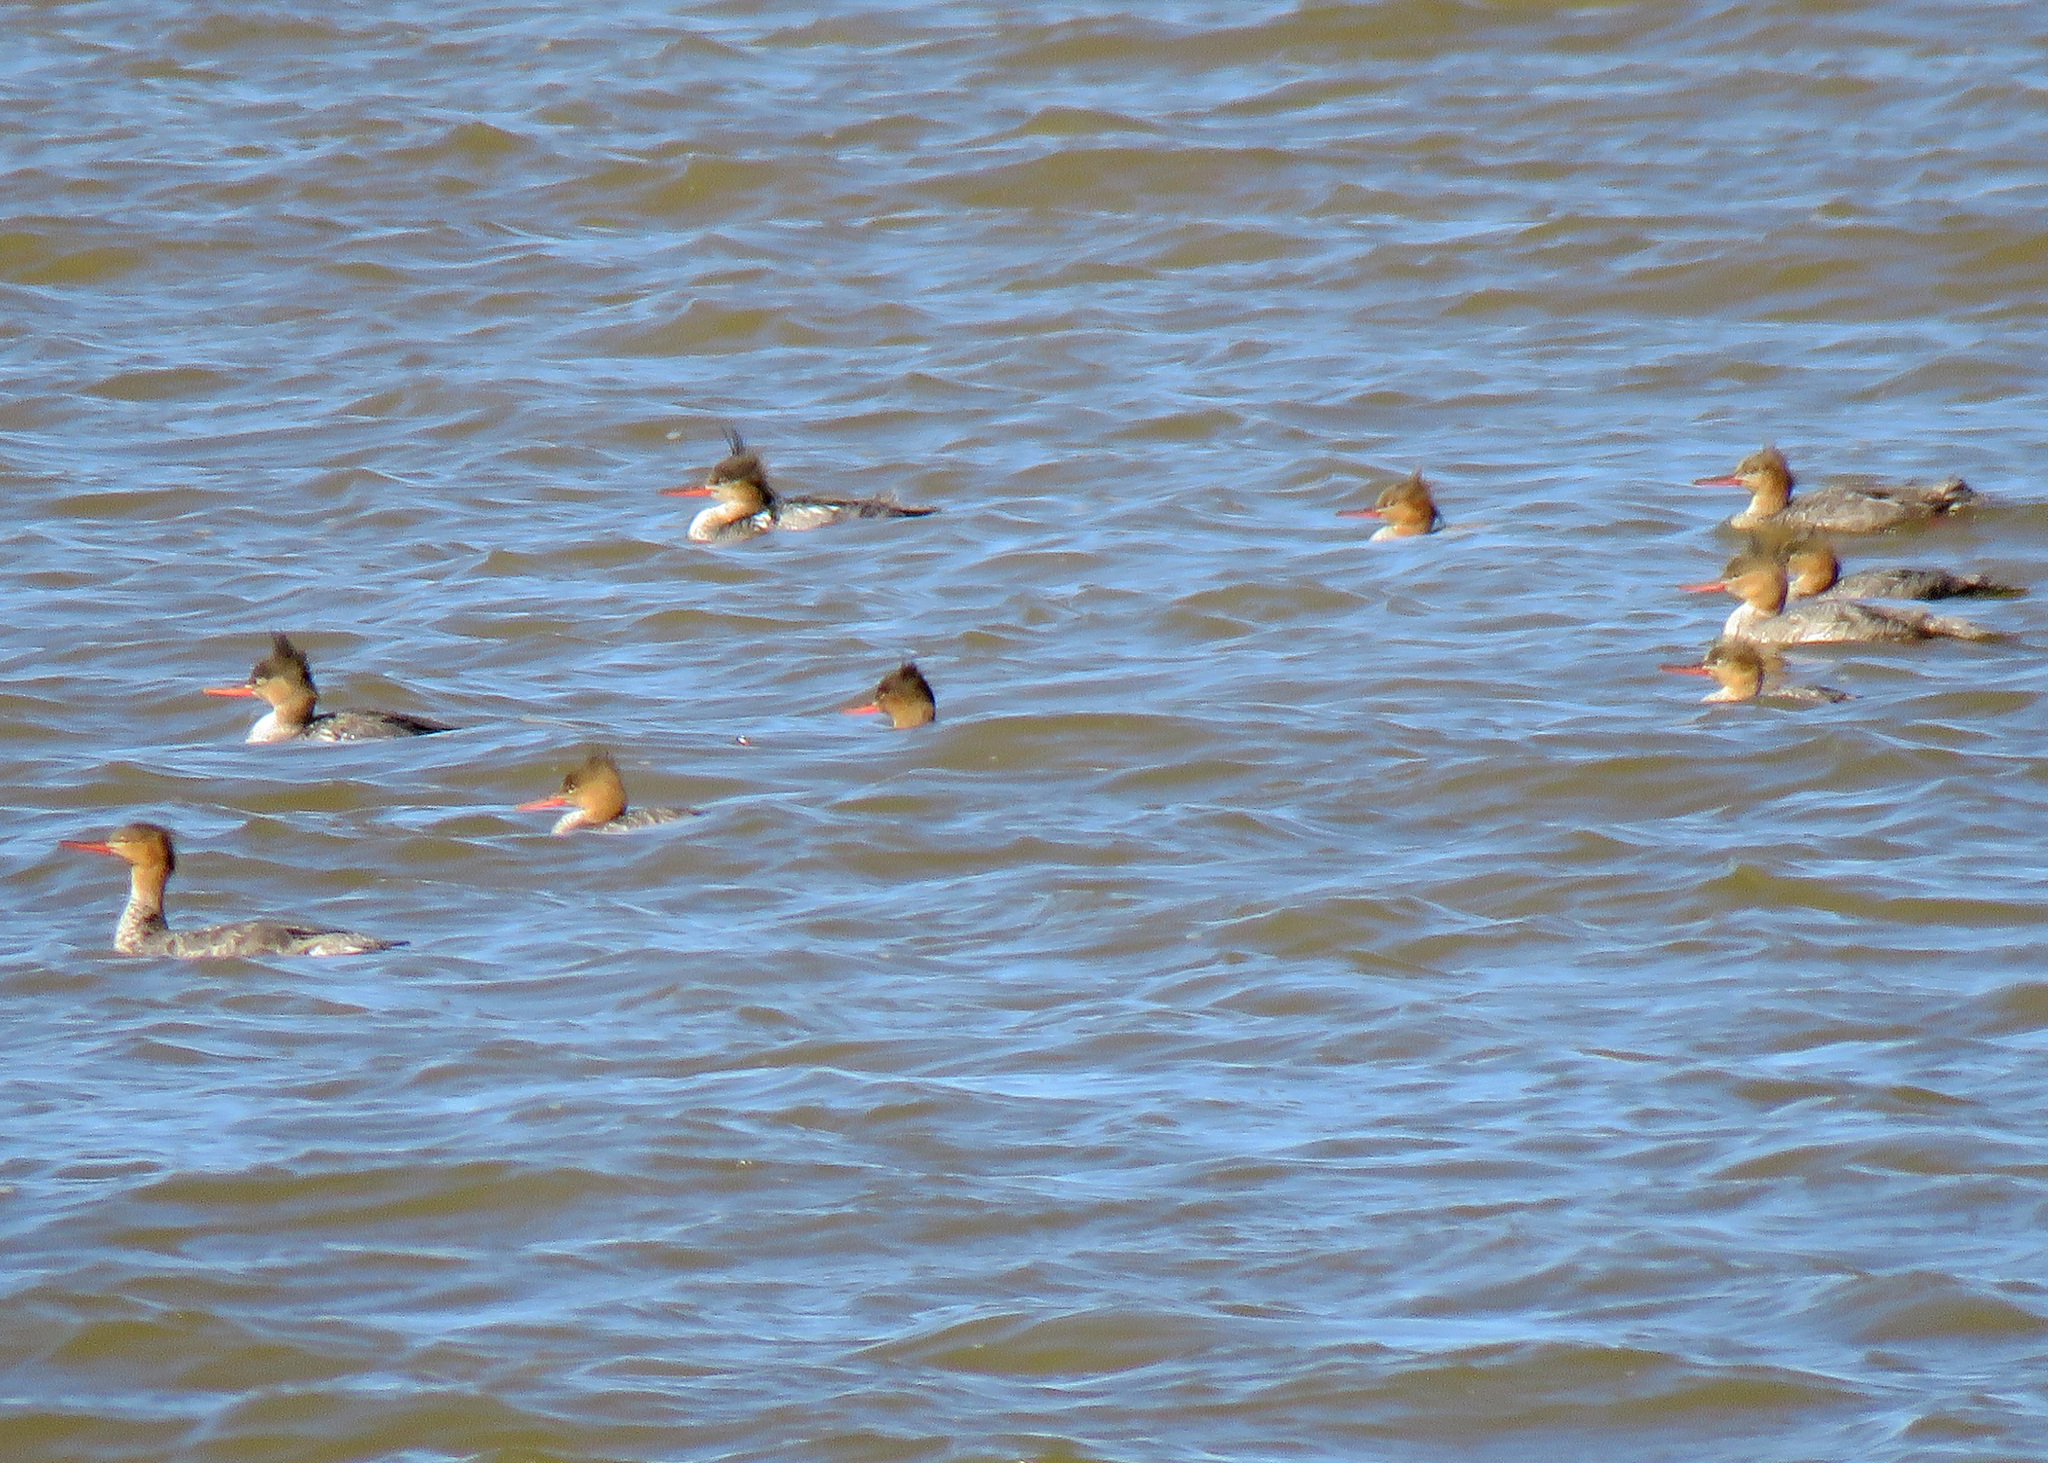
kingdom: Animalia
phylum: Chordata
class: Aves
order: Anseriformes
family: Anatidae
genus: Mergus
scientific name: Mergus serrator
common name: Red-breasted merganser
